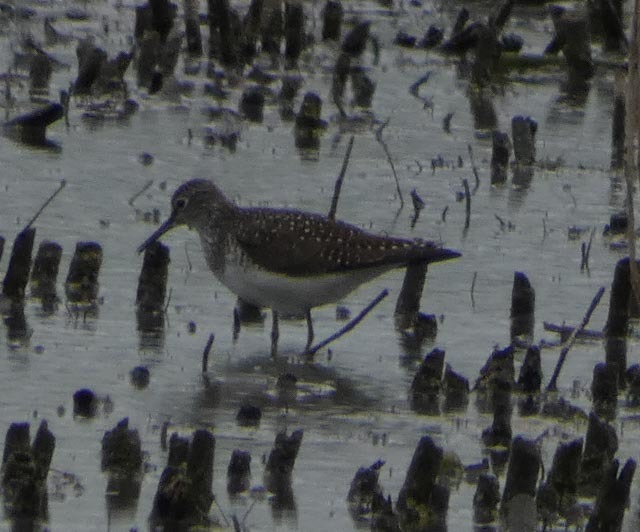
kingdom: Animalia
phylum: Chordata
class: Aves
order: Charadriiformes
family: Scolopacidae
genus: Tringa
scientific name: Tringa solitaria
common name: Solitary sandpiper
